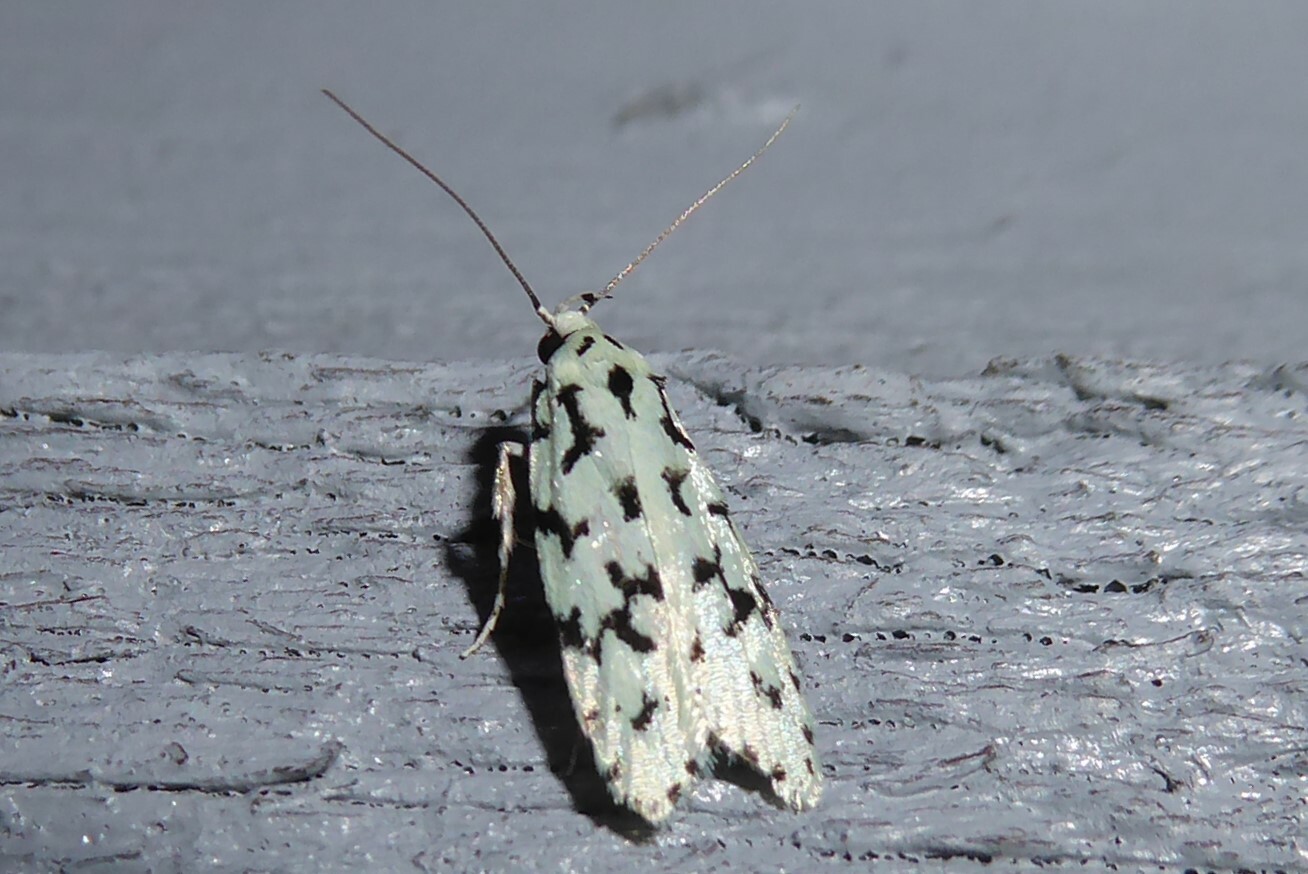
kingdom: Animalia
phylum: Arthropoda
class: Insecta
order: Lepidoptera
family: Oecophoridae
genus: Izatha
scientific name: Izatha huttoni
